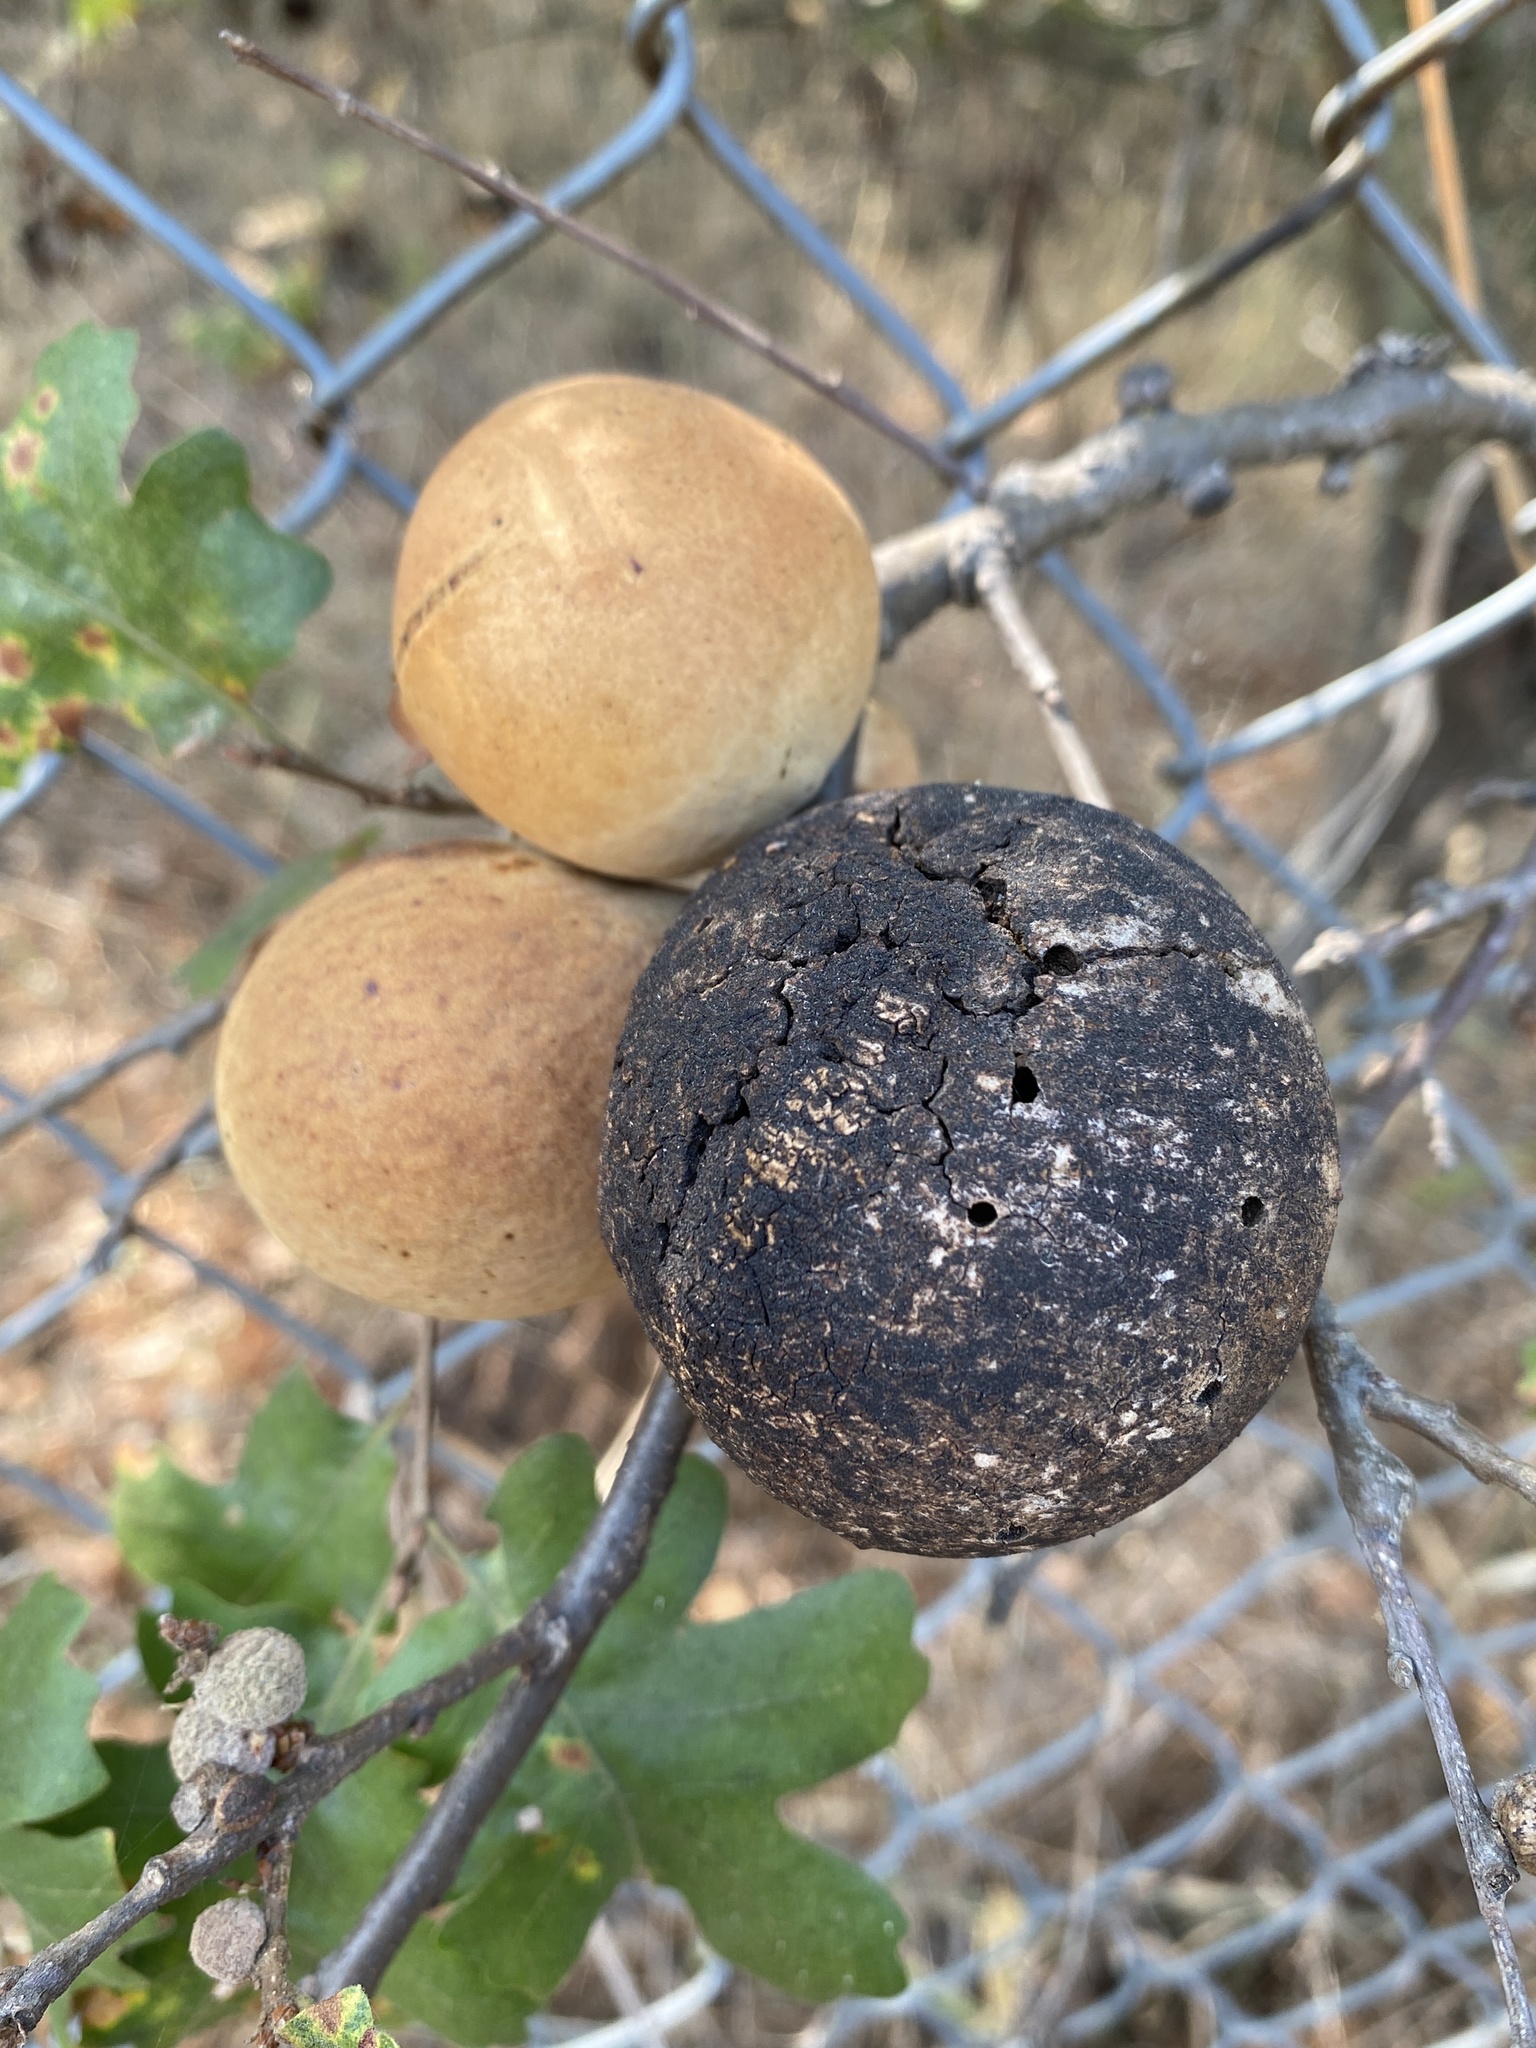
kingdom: Animalia
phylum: Arthropoda
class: Insecta
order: Hymenoptera
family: Cynipidae
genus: Andricus
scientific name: Andricus quercuscalifornicus
